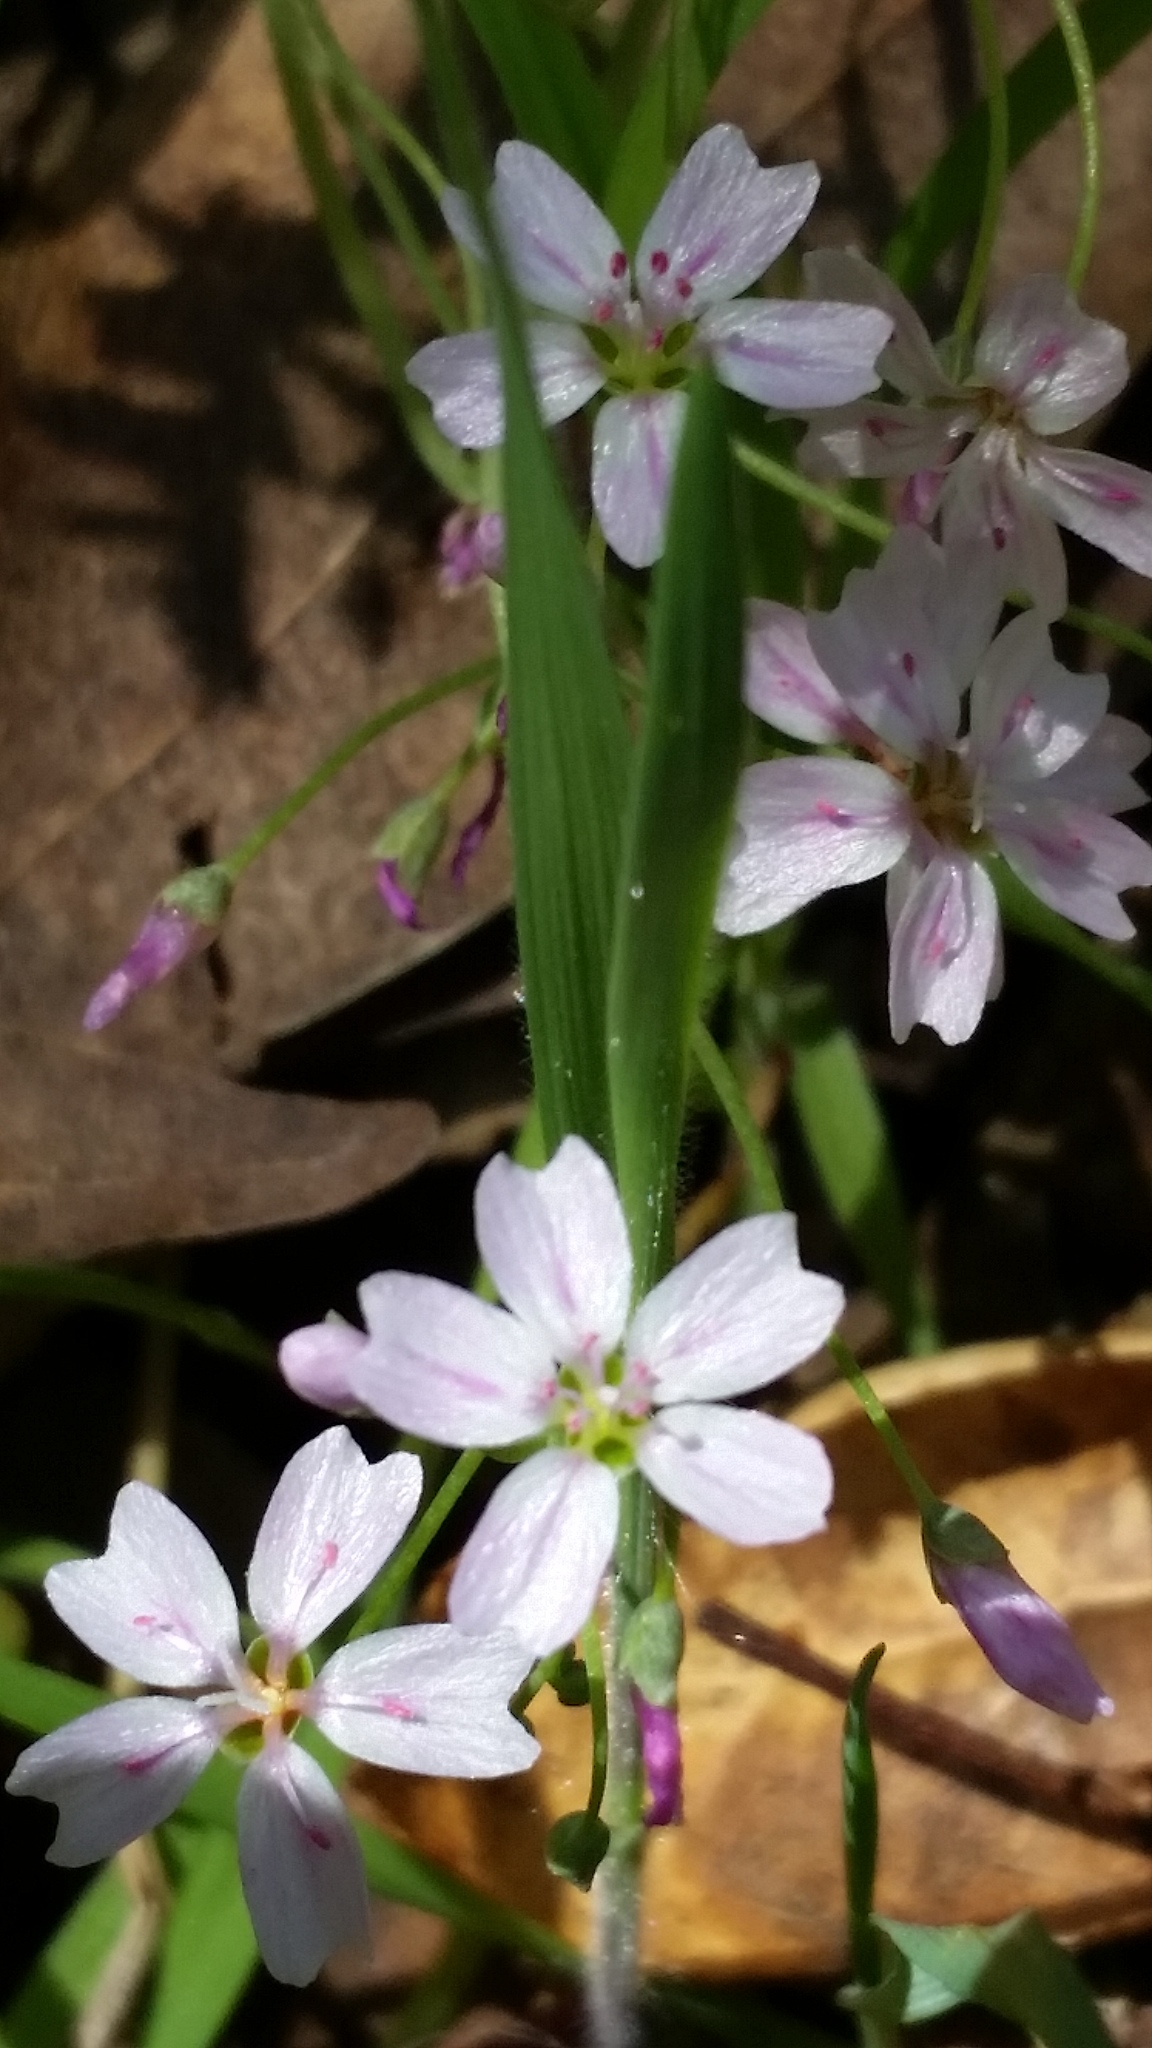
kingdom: Plantae
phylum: Tracheophyta
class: Magnoliopsida
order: Caryophyllales
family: Montiaceae
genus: Claytonia
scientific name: Claytonia sibirica
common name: Pink purslane
